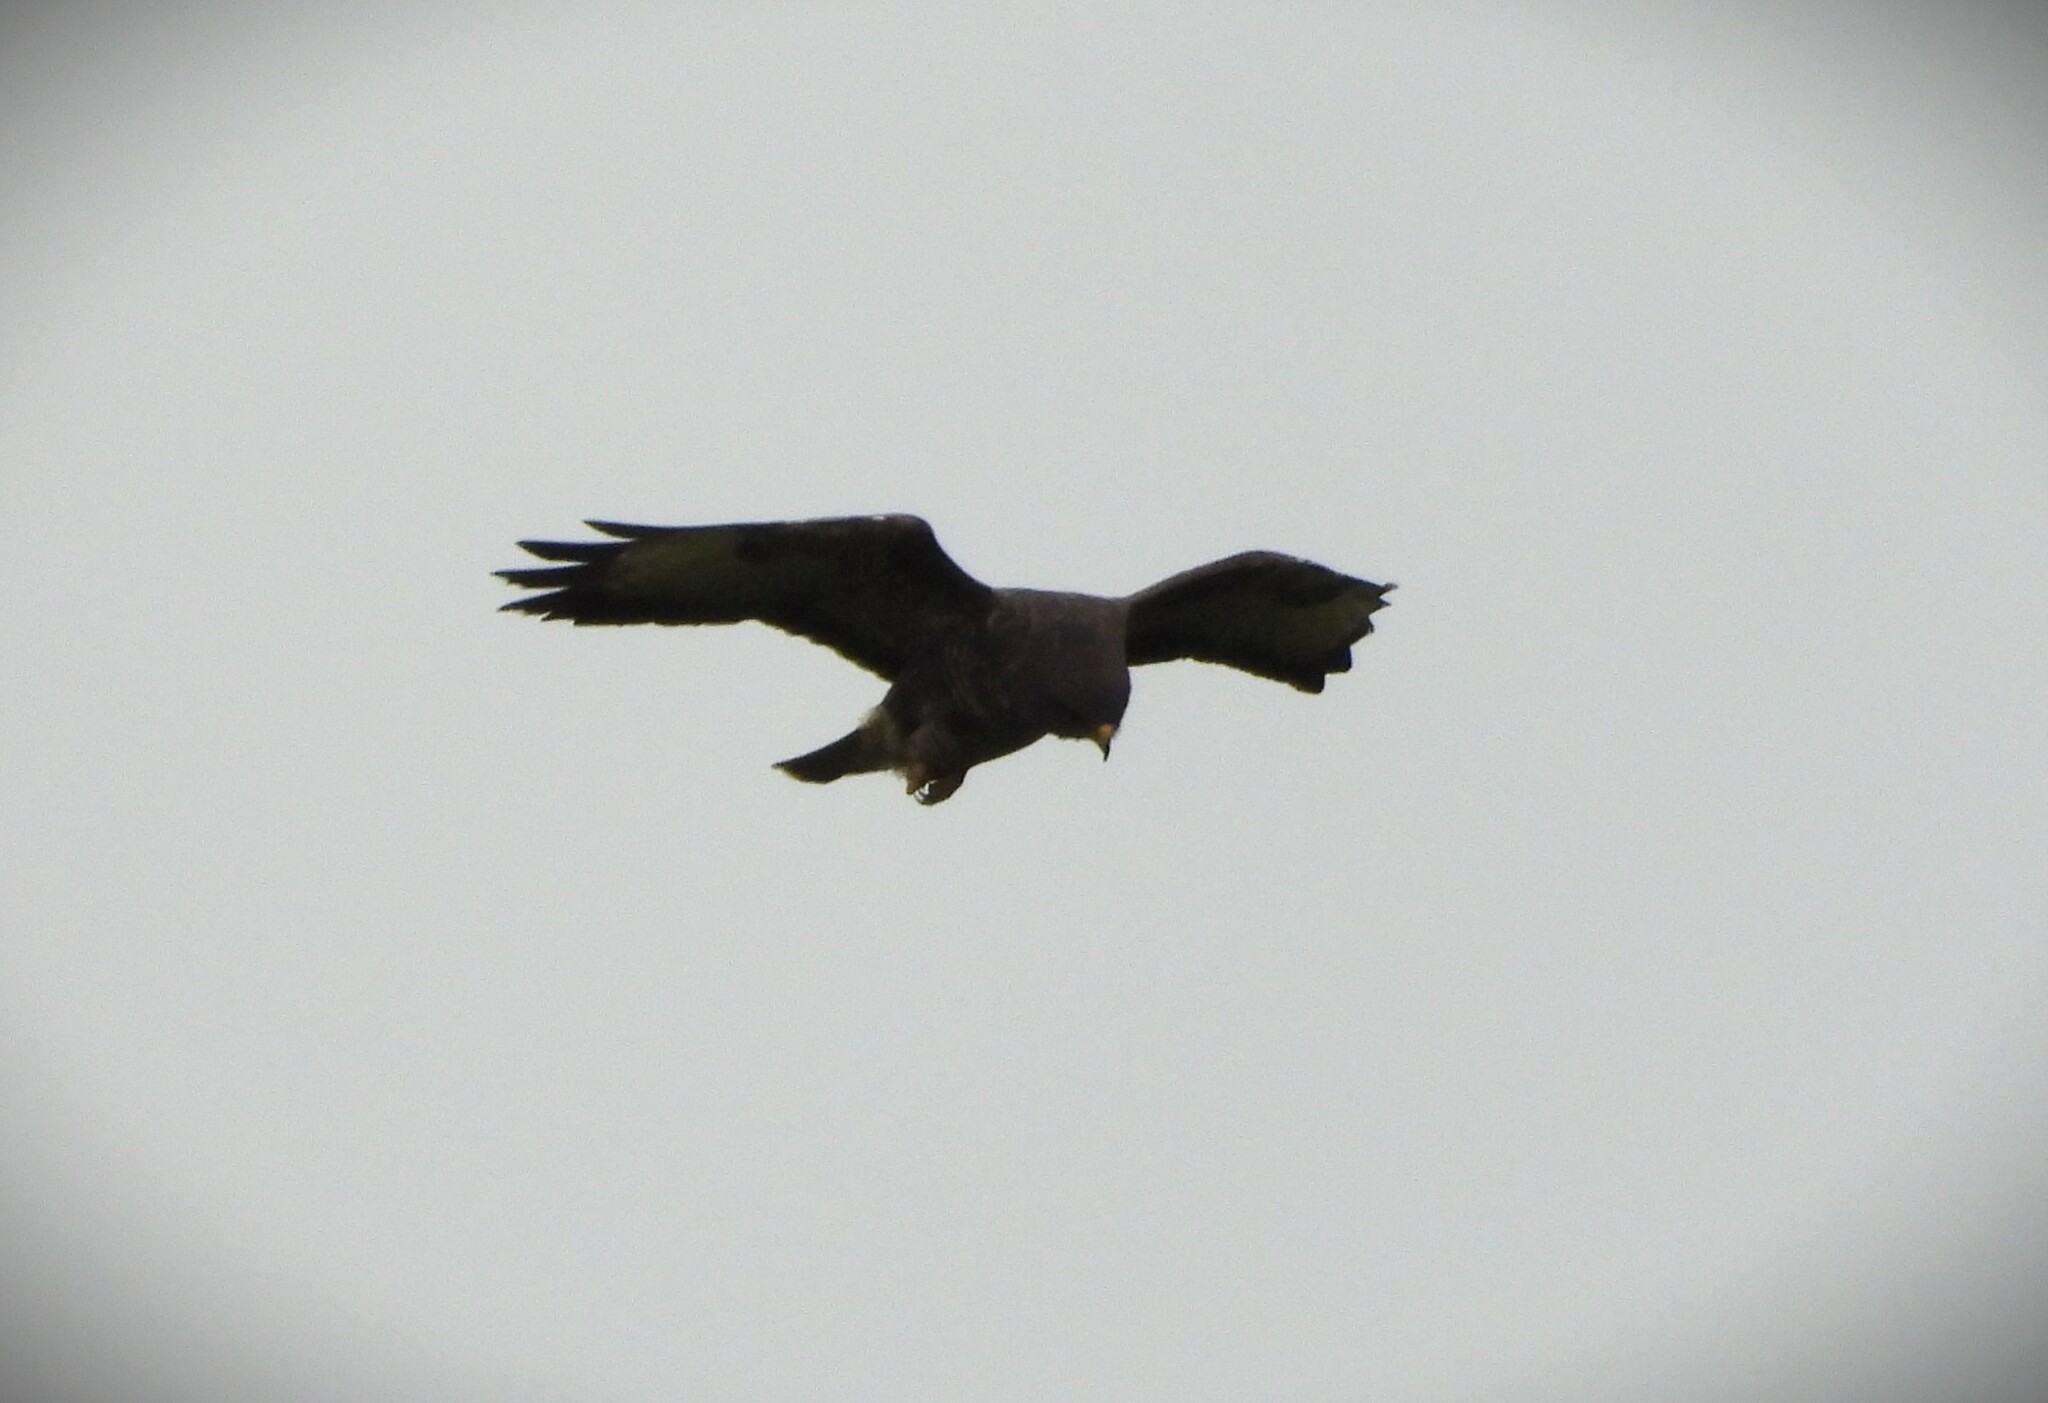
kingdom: Animalia
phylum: Chordata
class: Aves
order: Accipitriformes
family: Accipitridae
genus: Buteo
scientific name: Buteo buteo
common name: Common buzzard
